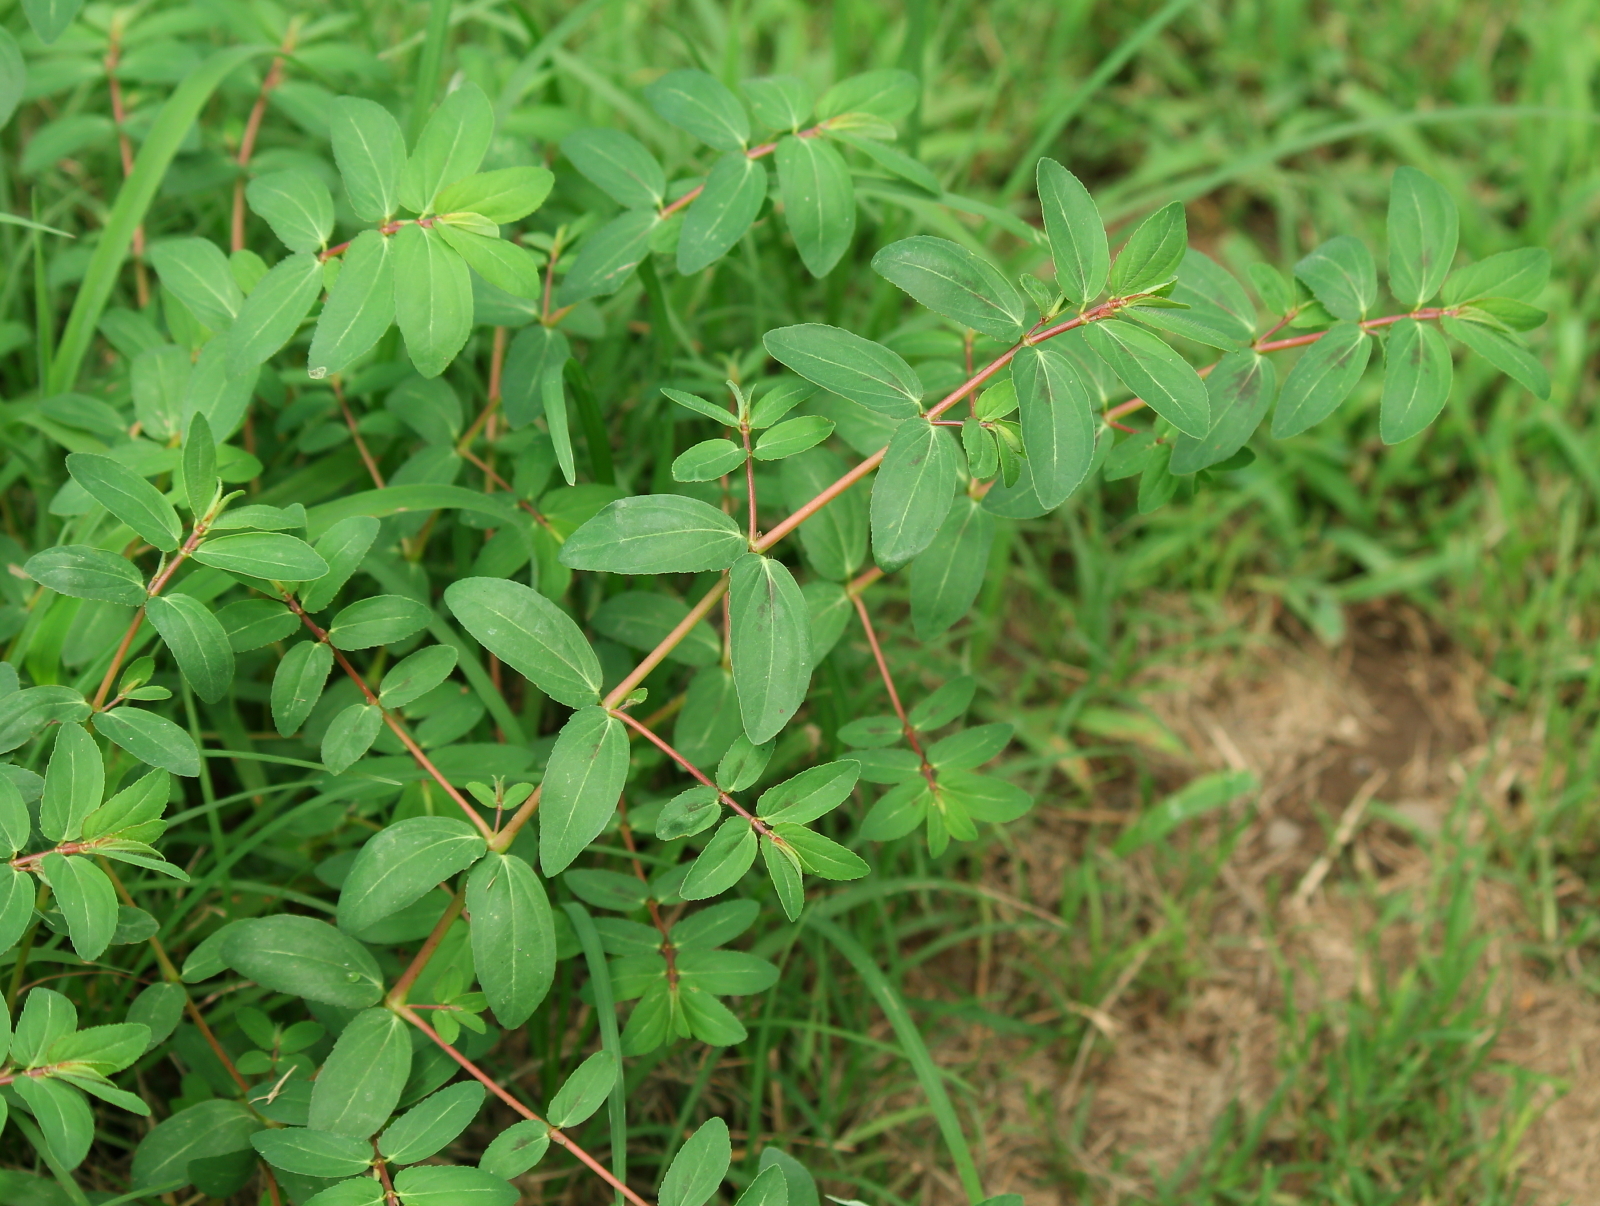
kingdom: Plantae
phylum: Tracheophyta
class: Magnoliopsida
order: Malpighiales
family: Euphorbiaceae
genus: Euphorbia
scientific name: Euphorbia nutans
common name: Eyebane
